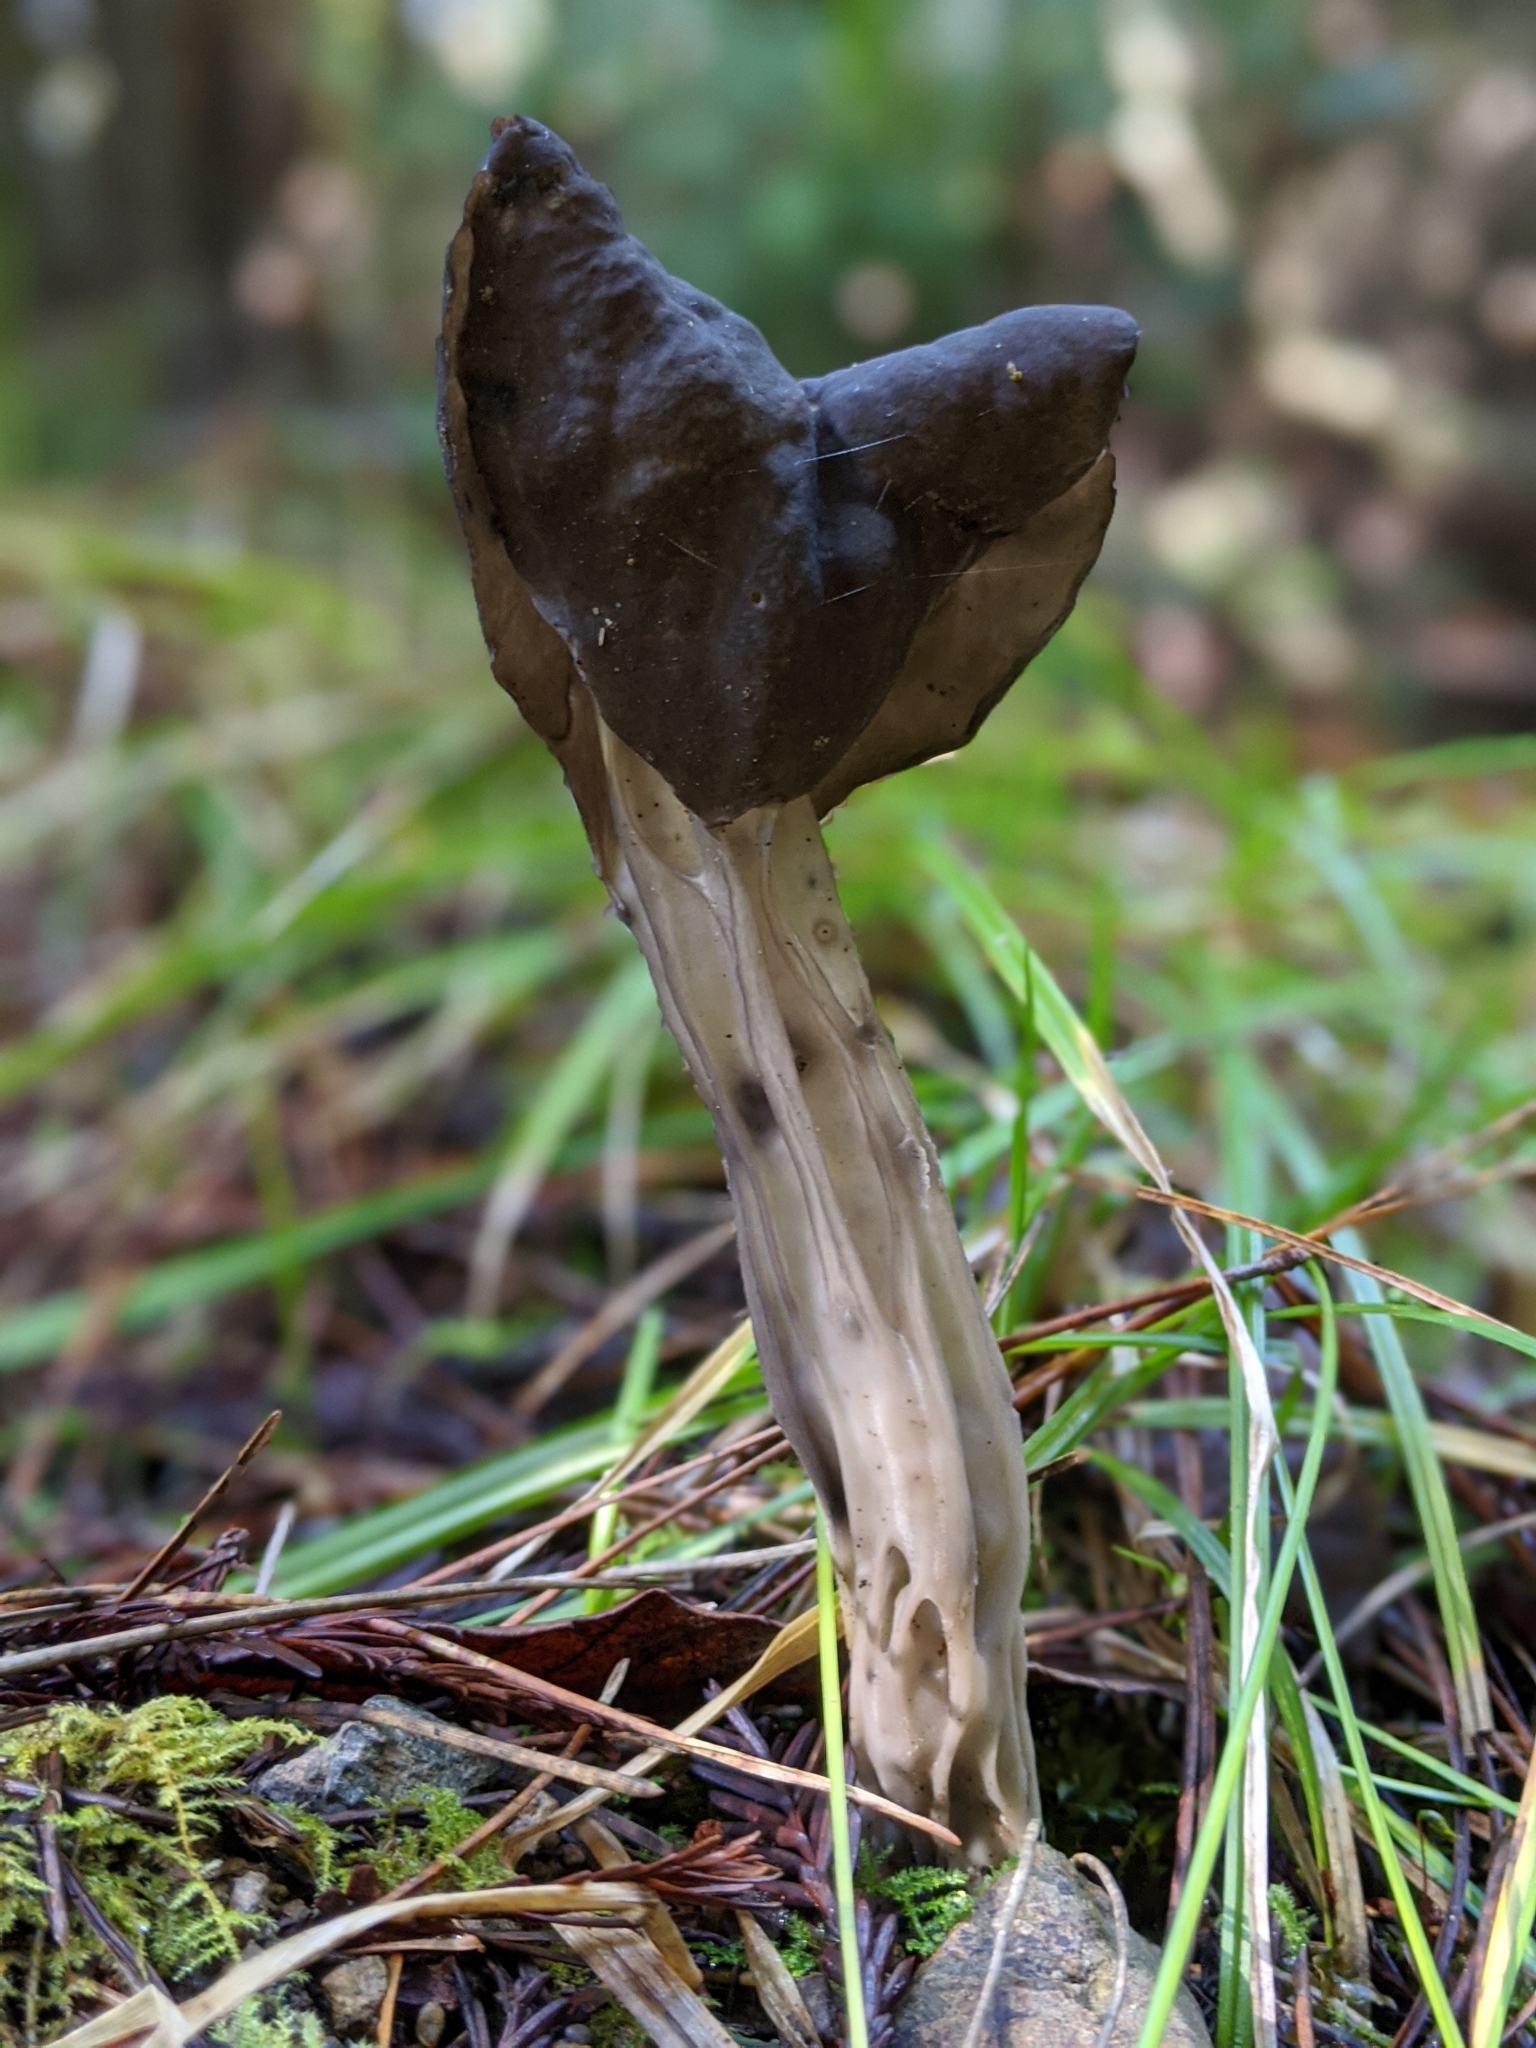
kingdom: Fungi
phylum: Ascomycota
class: Pezizomycetes
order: Pezizales
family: Helvellaceae
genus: Helvella
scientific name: Helvella vespertina
